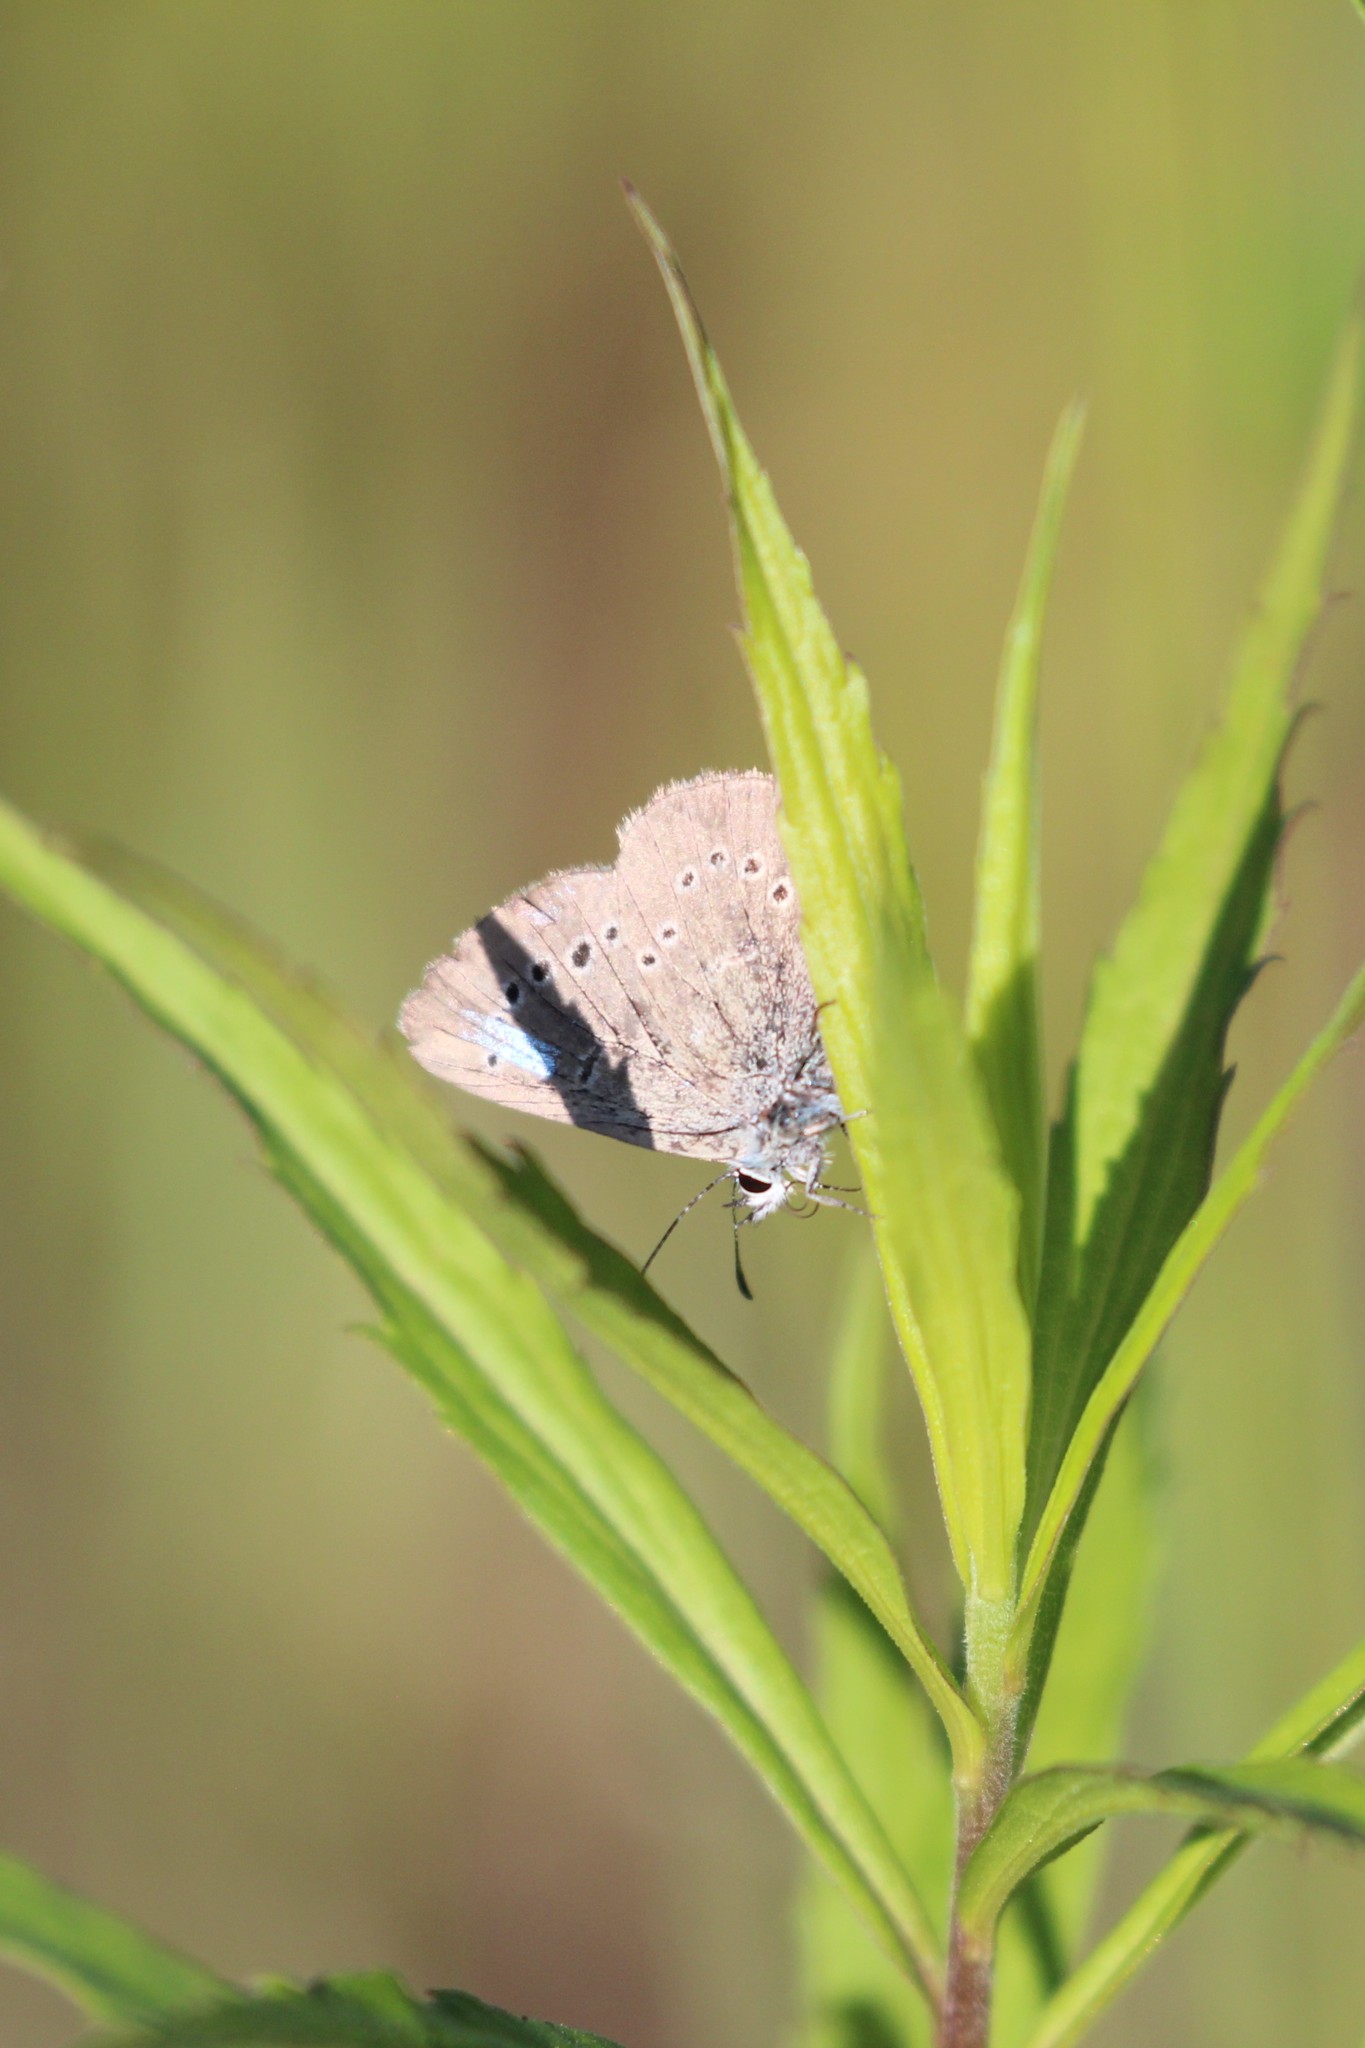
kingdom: Animalia
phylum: Arthropoda
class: Insecta
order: Lepidoptera
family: Lycaenidae
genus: Glaucopsyche
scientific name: Glaucopsyche lygdamus
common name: Silvery blue
